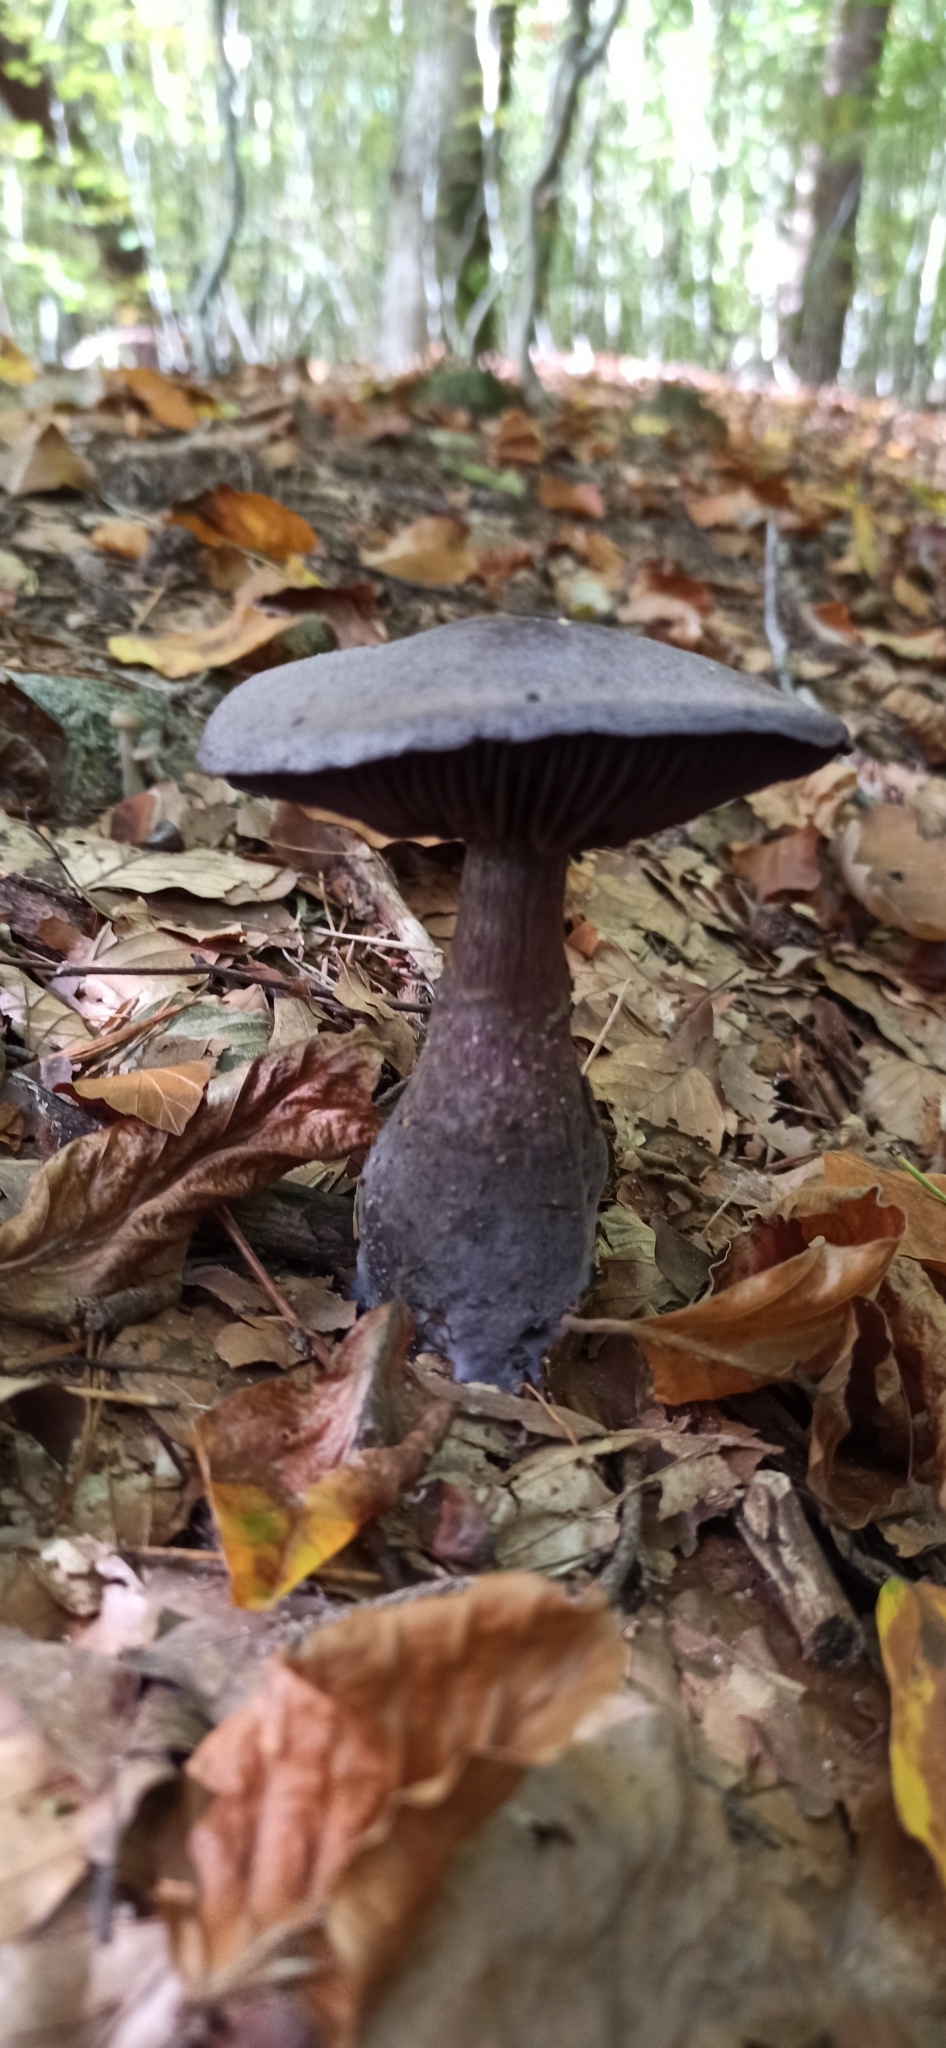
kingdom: Fungi
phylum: Basidiomycota
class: Agaricomycetes
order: Agaricales
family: Cortinariaceae
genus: Cortinarius
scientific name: Cortinarius violaceus
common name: Violet webcap
